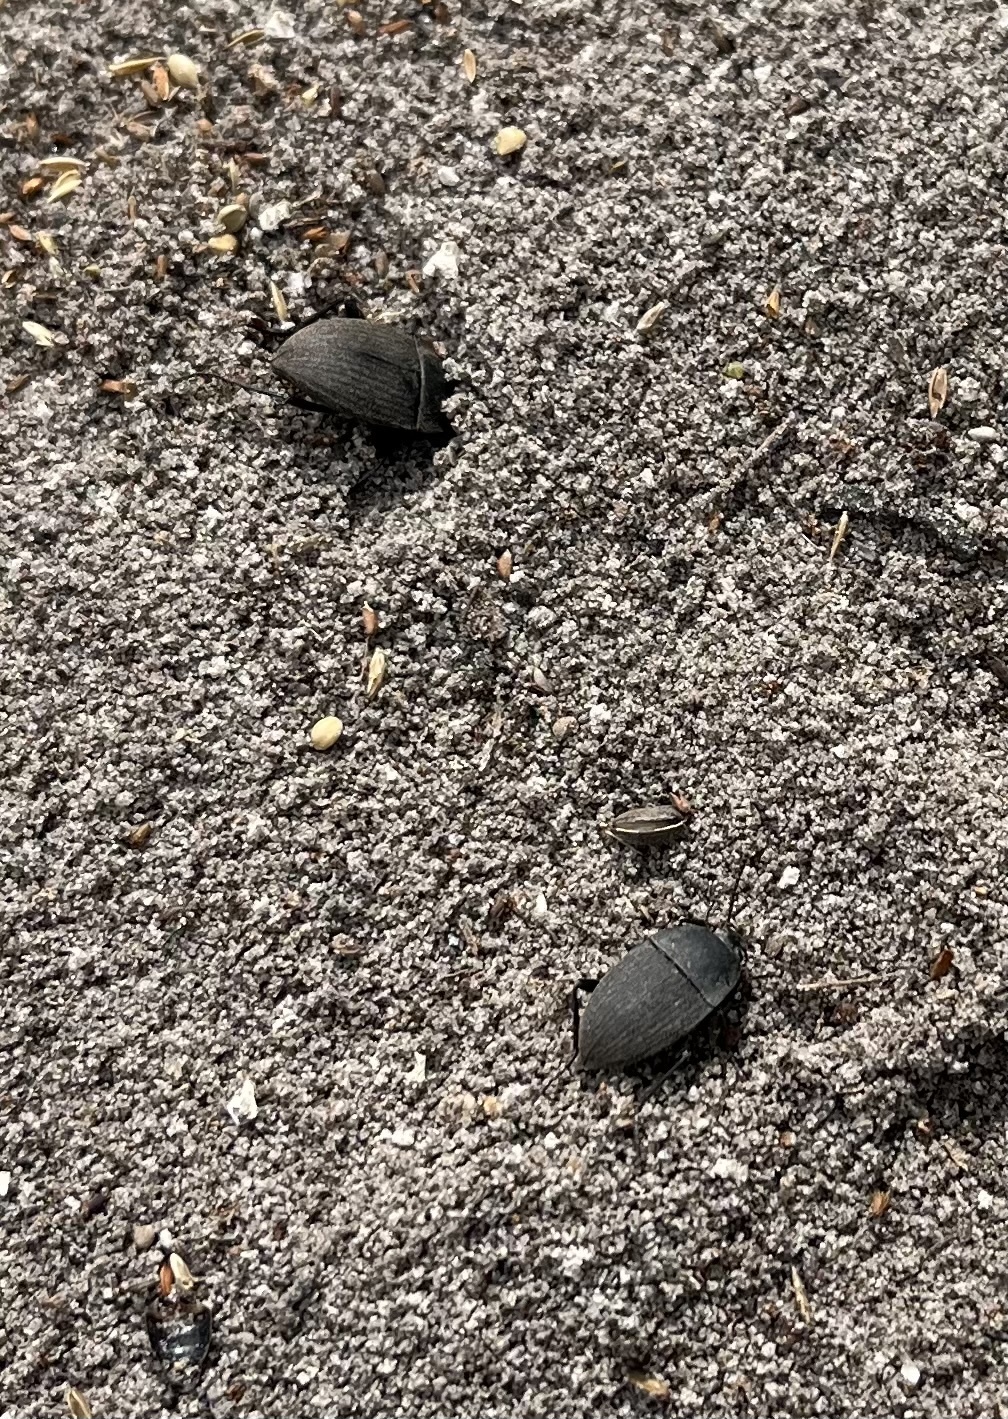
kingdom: Animalia
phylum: Arthropoda
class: Insecta
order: Coleoptera
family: Tenebrionidae
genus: Eleodes
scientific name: Eleodes veterator
